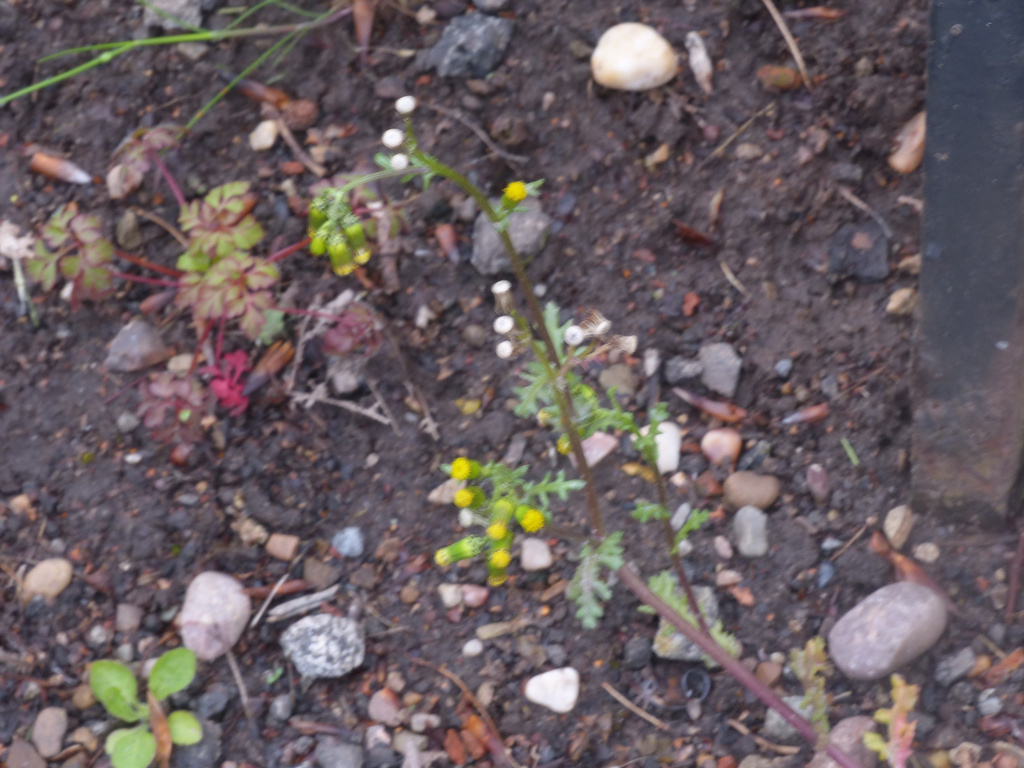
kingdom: Plantae
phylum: Tracheophyta
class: Magnoliopsida
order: Asterales
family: Asteraceae
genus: Senecio
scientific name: Senecio vulgaris
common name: Old-man-in-the-spring
